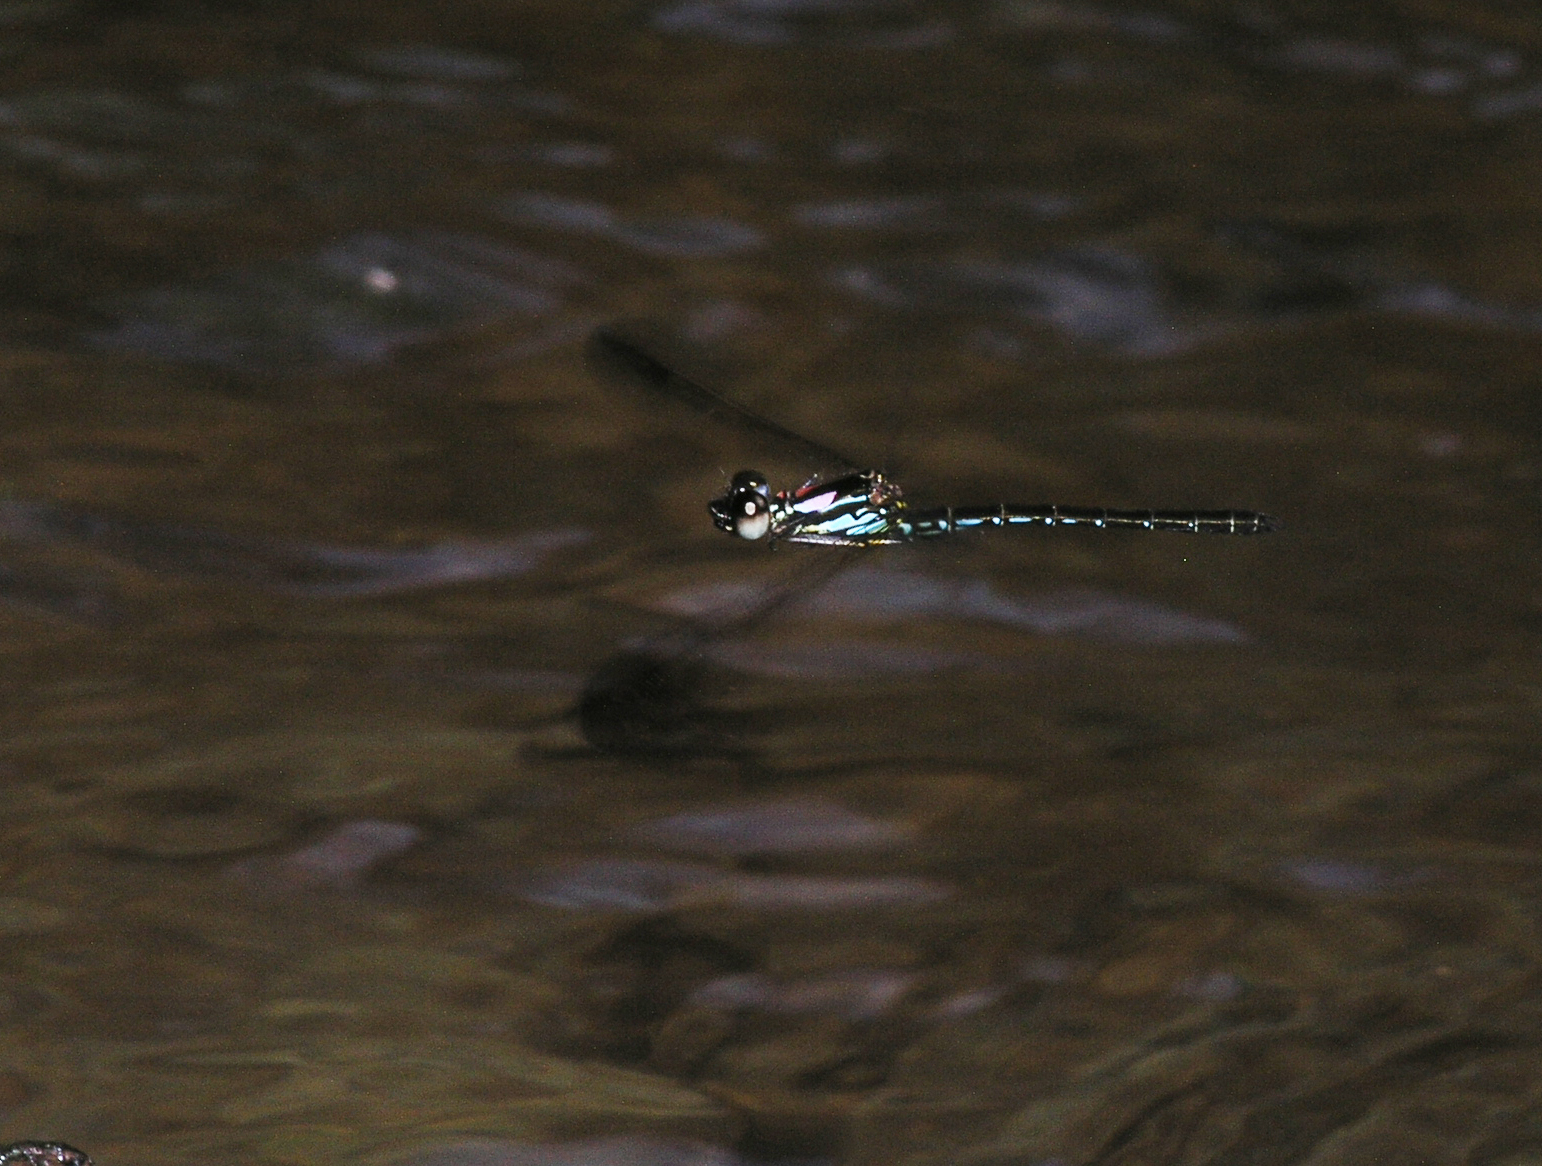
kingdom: Animalia
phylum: Arthropoda
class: Insecta
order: Odonata
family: Chlorocyphidae
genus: Heliocypha
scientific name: Heliocypha biforata
